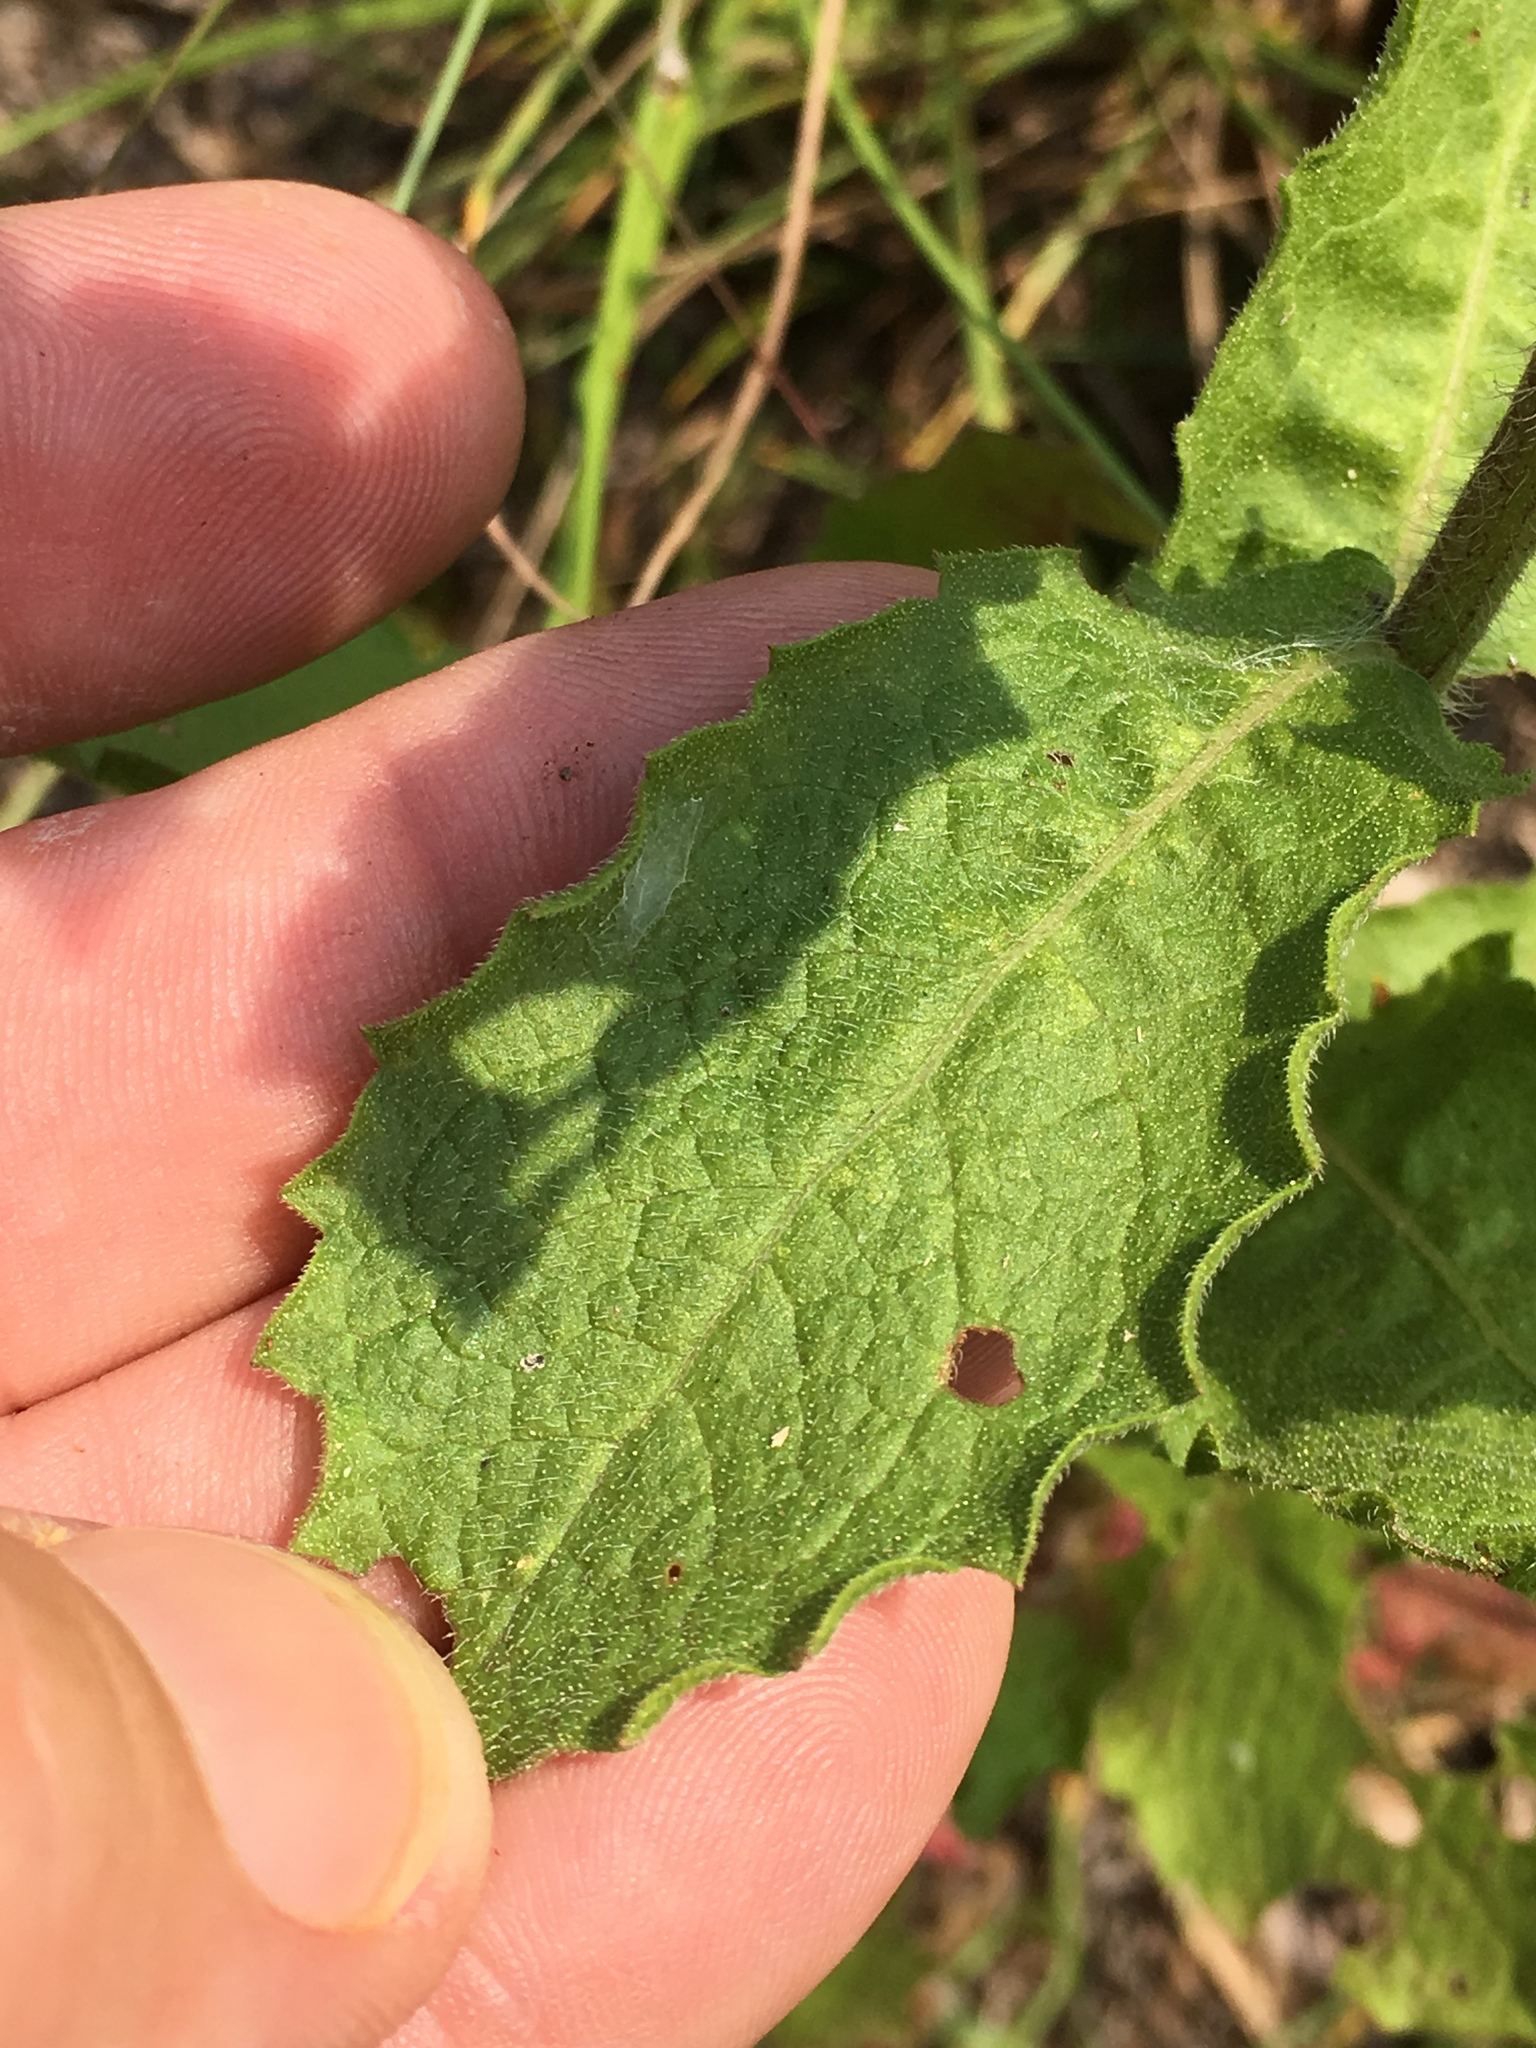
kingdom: Plantae
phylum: Tracheophyta
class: Magnoliopsida
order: Asterales
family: Asteraceae
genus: Heterotheca
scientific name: Heterotheca subaxillaris
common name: Camphorweed
